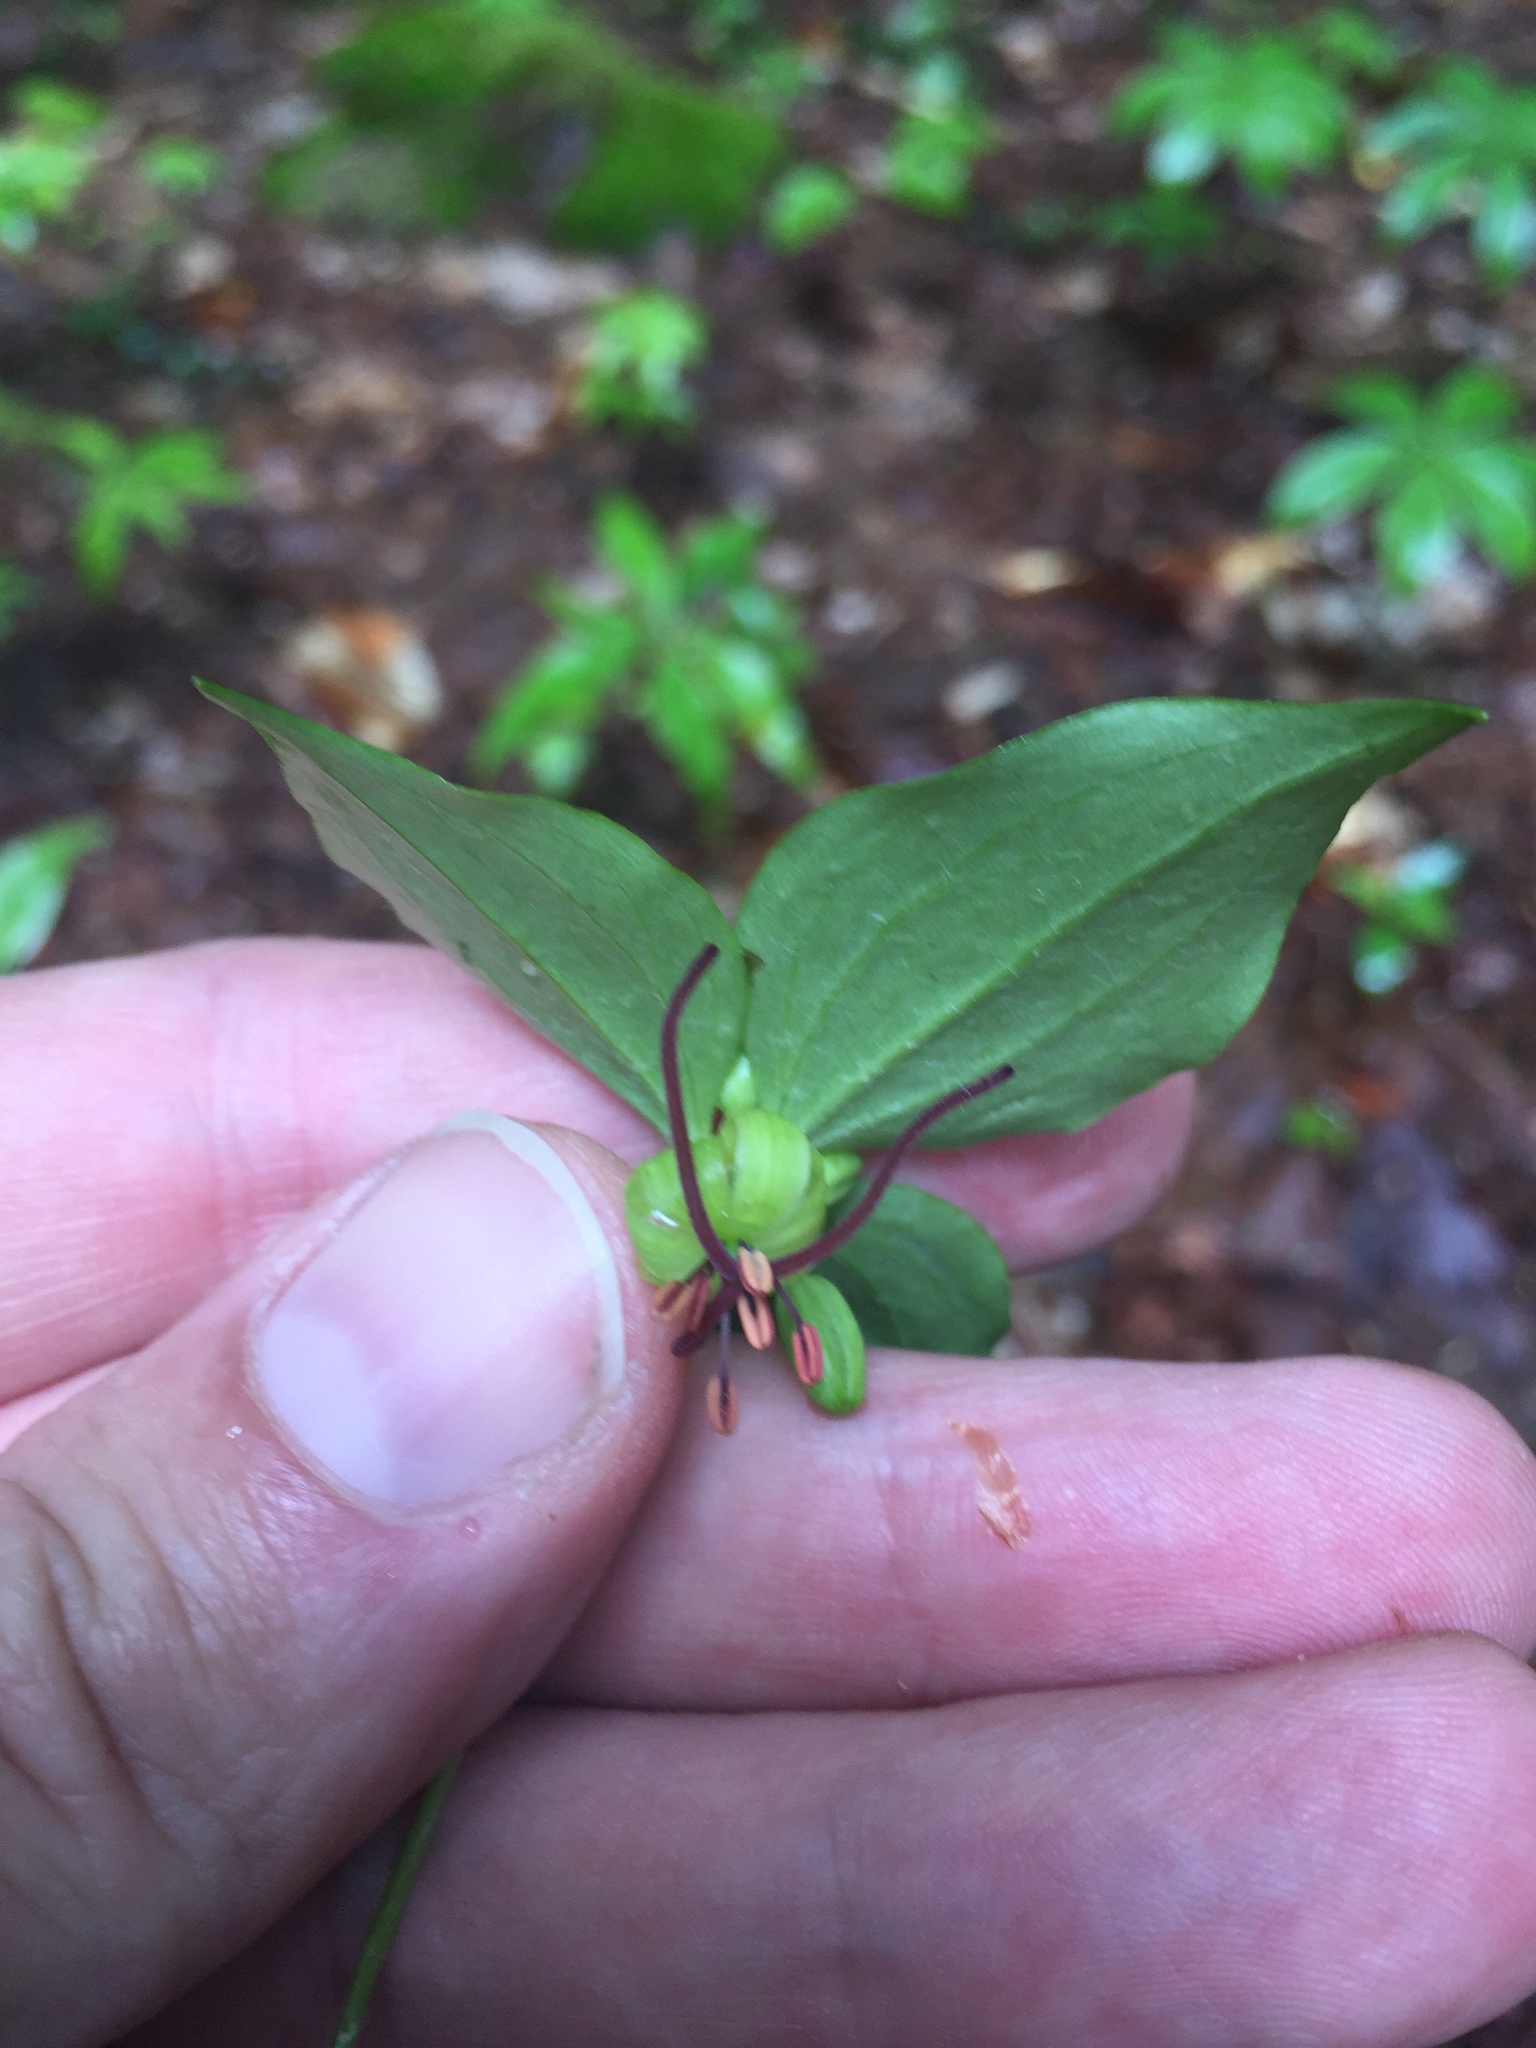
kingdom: Plantae
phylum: Tracheophyta
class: Liliopsida
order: Liliales
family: Liliaceae
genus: Medeola
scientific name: Medeola virginiana
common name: Indian cucumber-root
